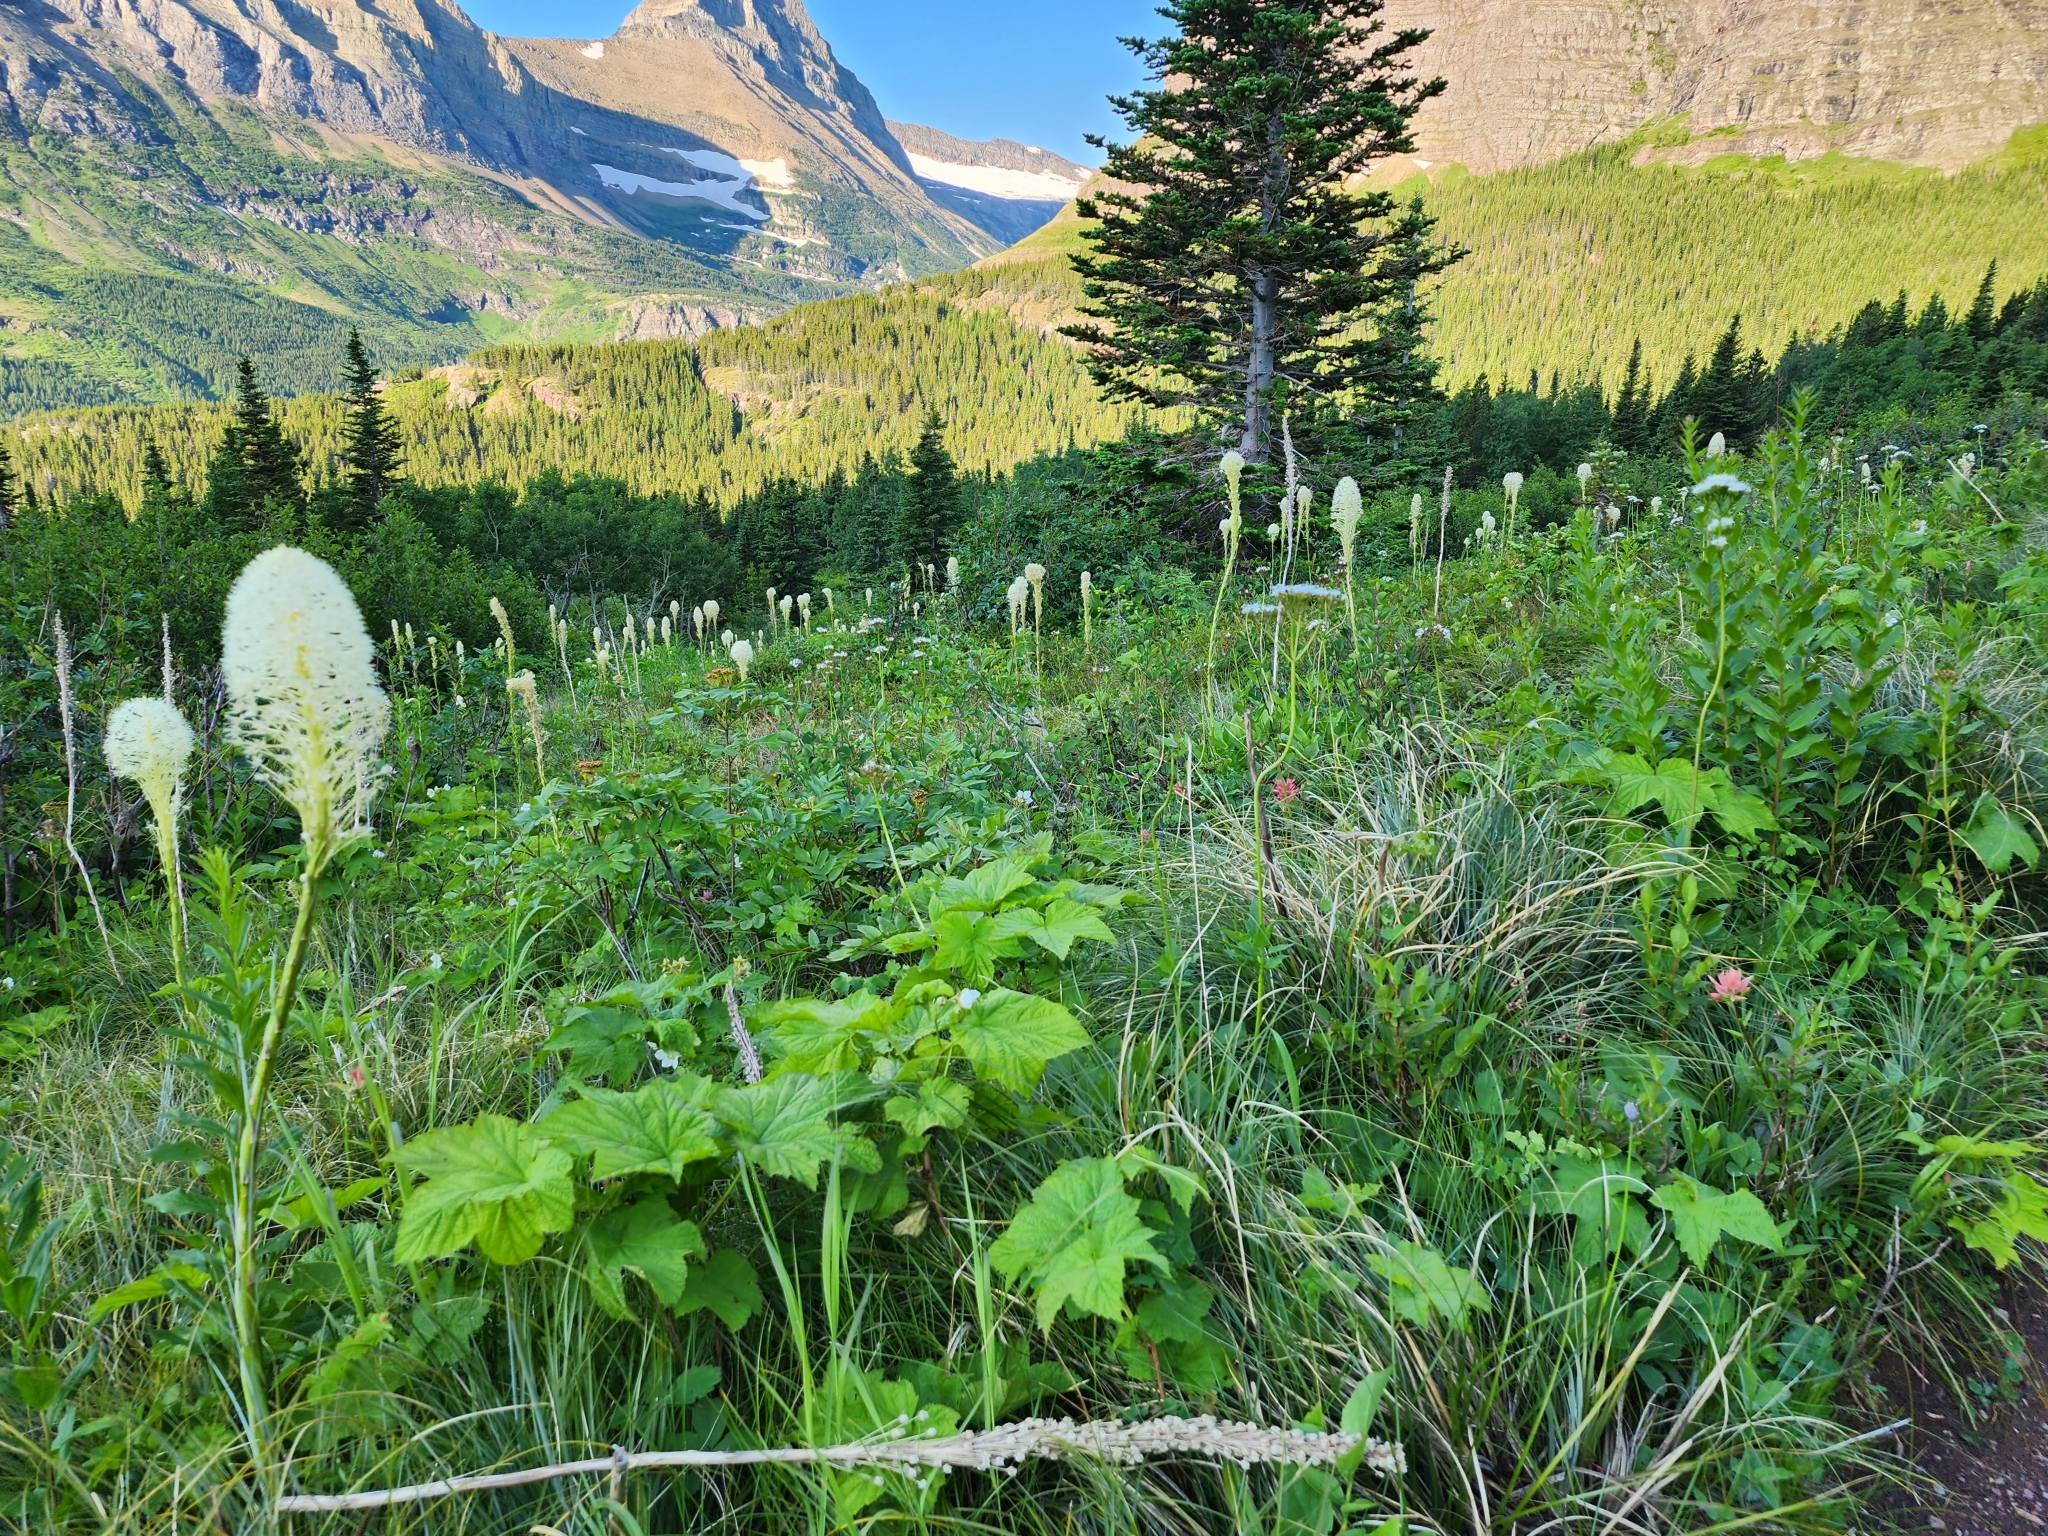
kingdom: Plantae
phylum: Tracheophyta
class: Liliopsida
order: Liliales
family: Melanthiaceae
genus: Xerophyllum
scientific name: Xerophyllum tenax
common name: Bear-grass
